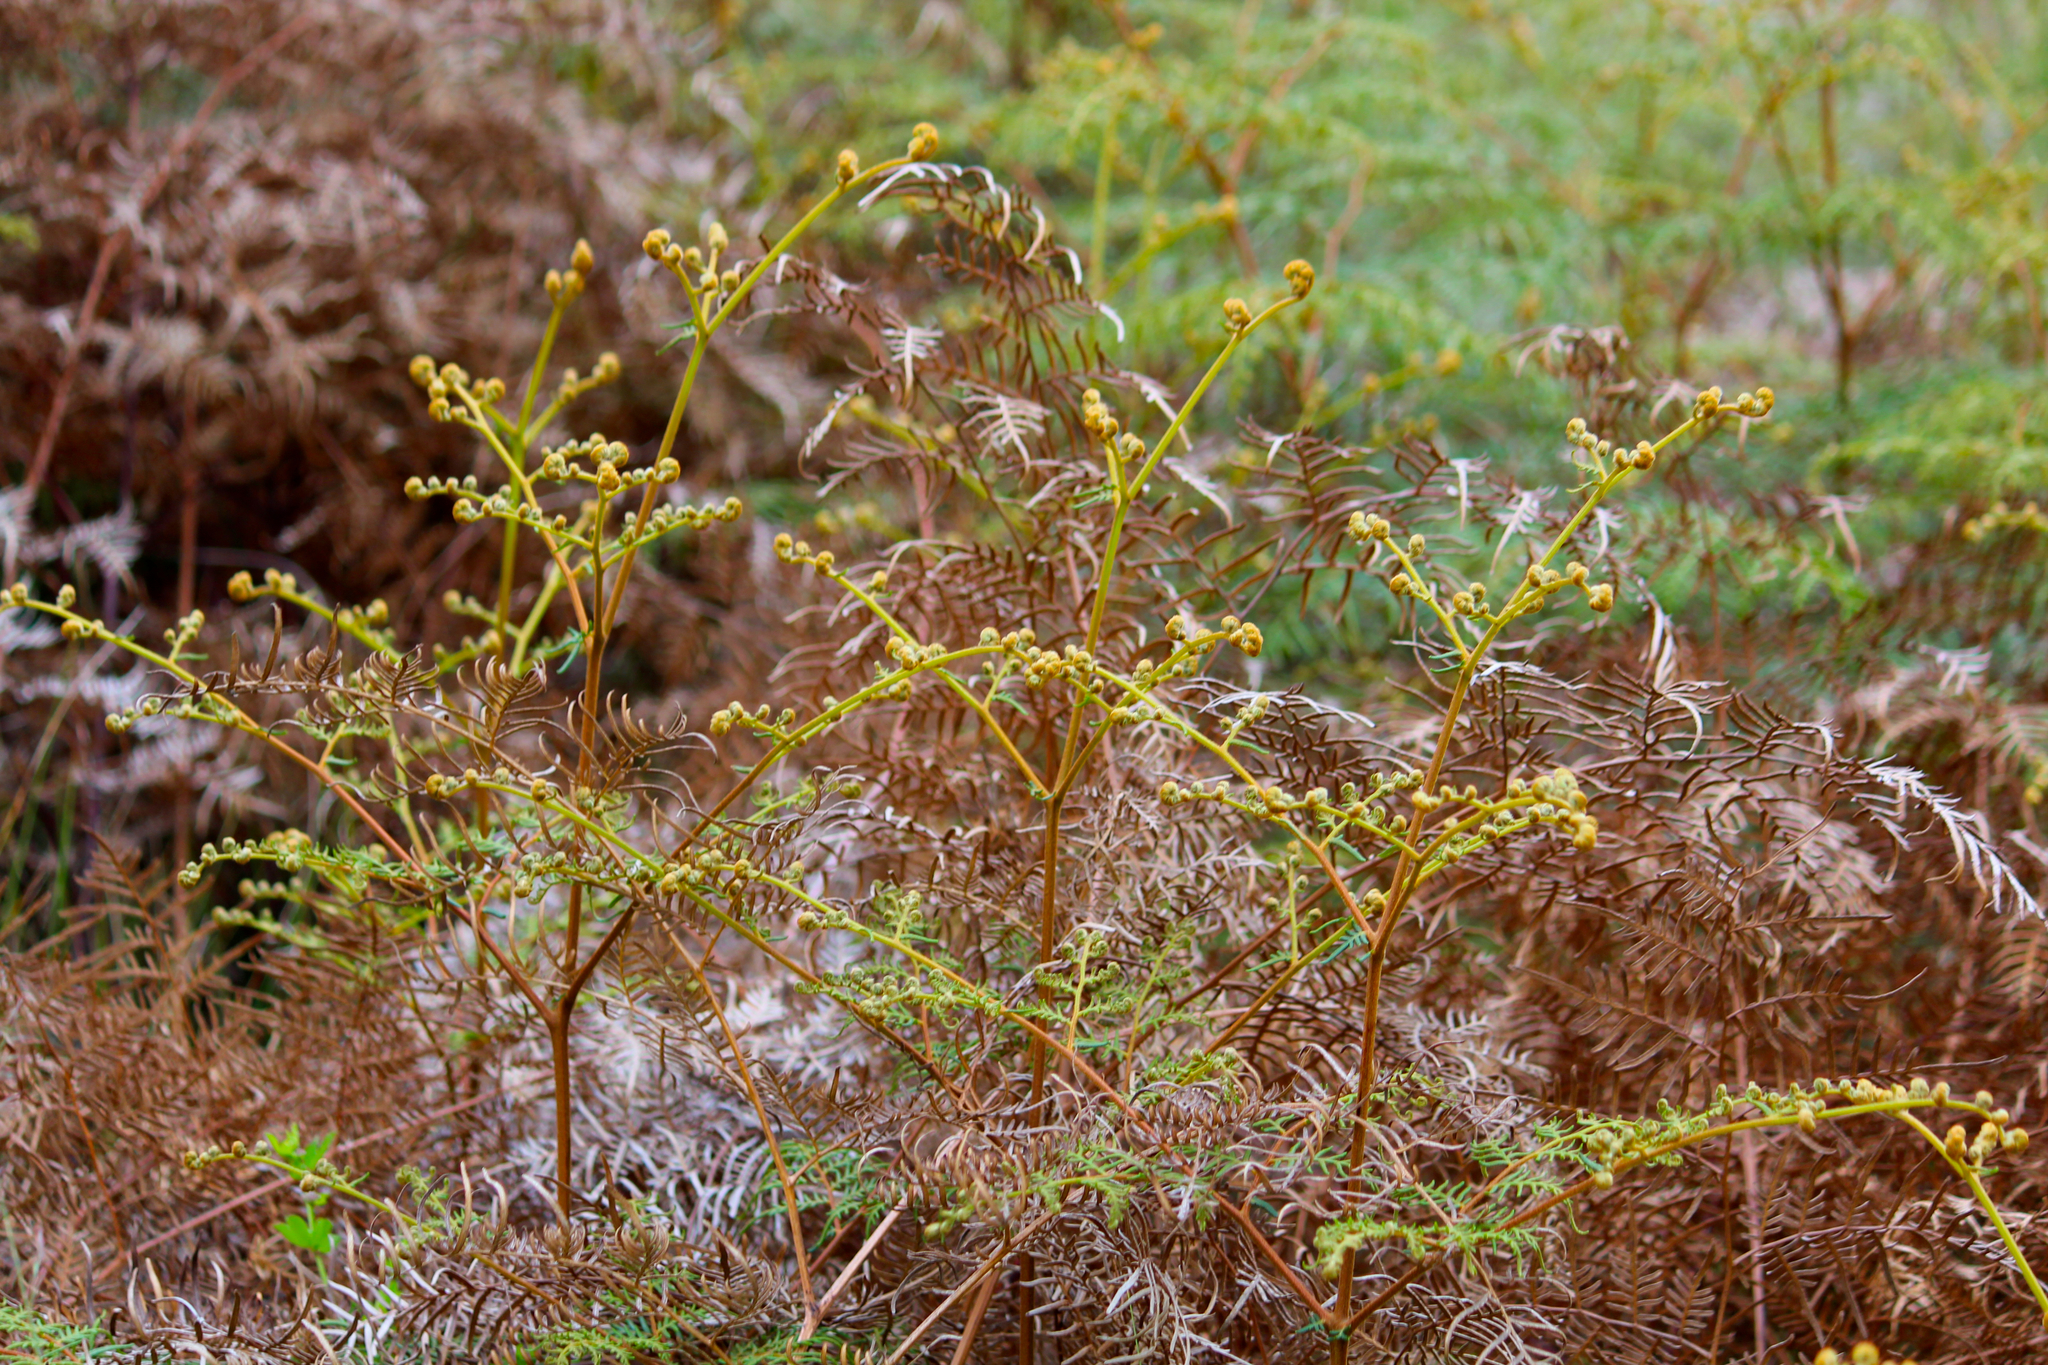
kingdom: Plantae
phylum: Tracheophyta
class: Polypodiopsida
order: Polypodiales
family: Dennstaedtiaceae
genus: Pteridium
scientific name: Pteridium esculentum
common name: Bracken fern
